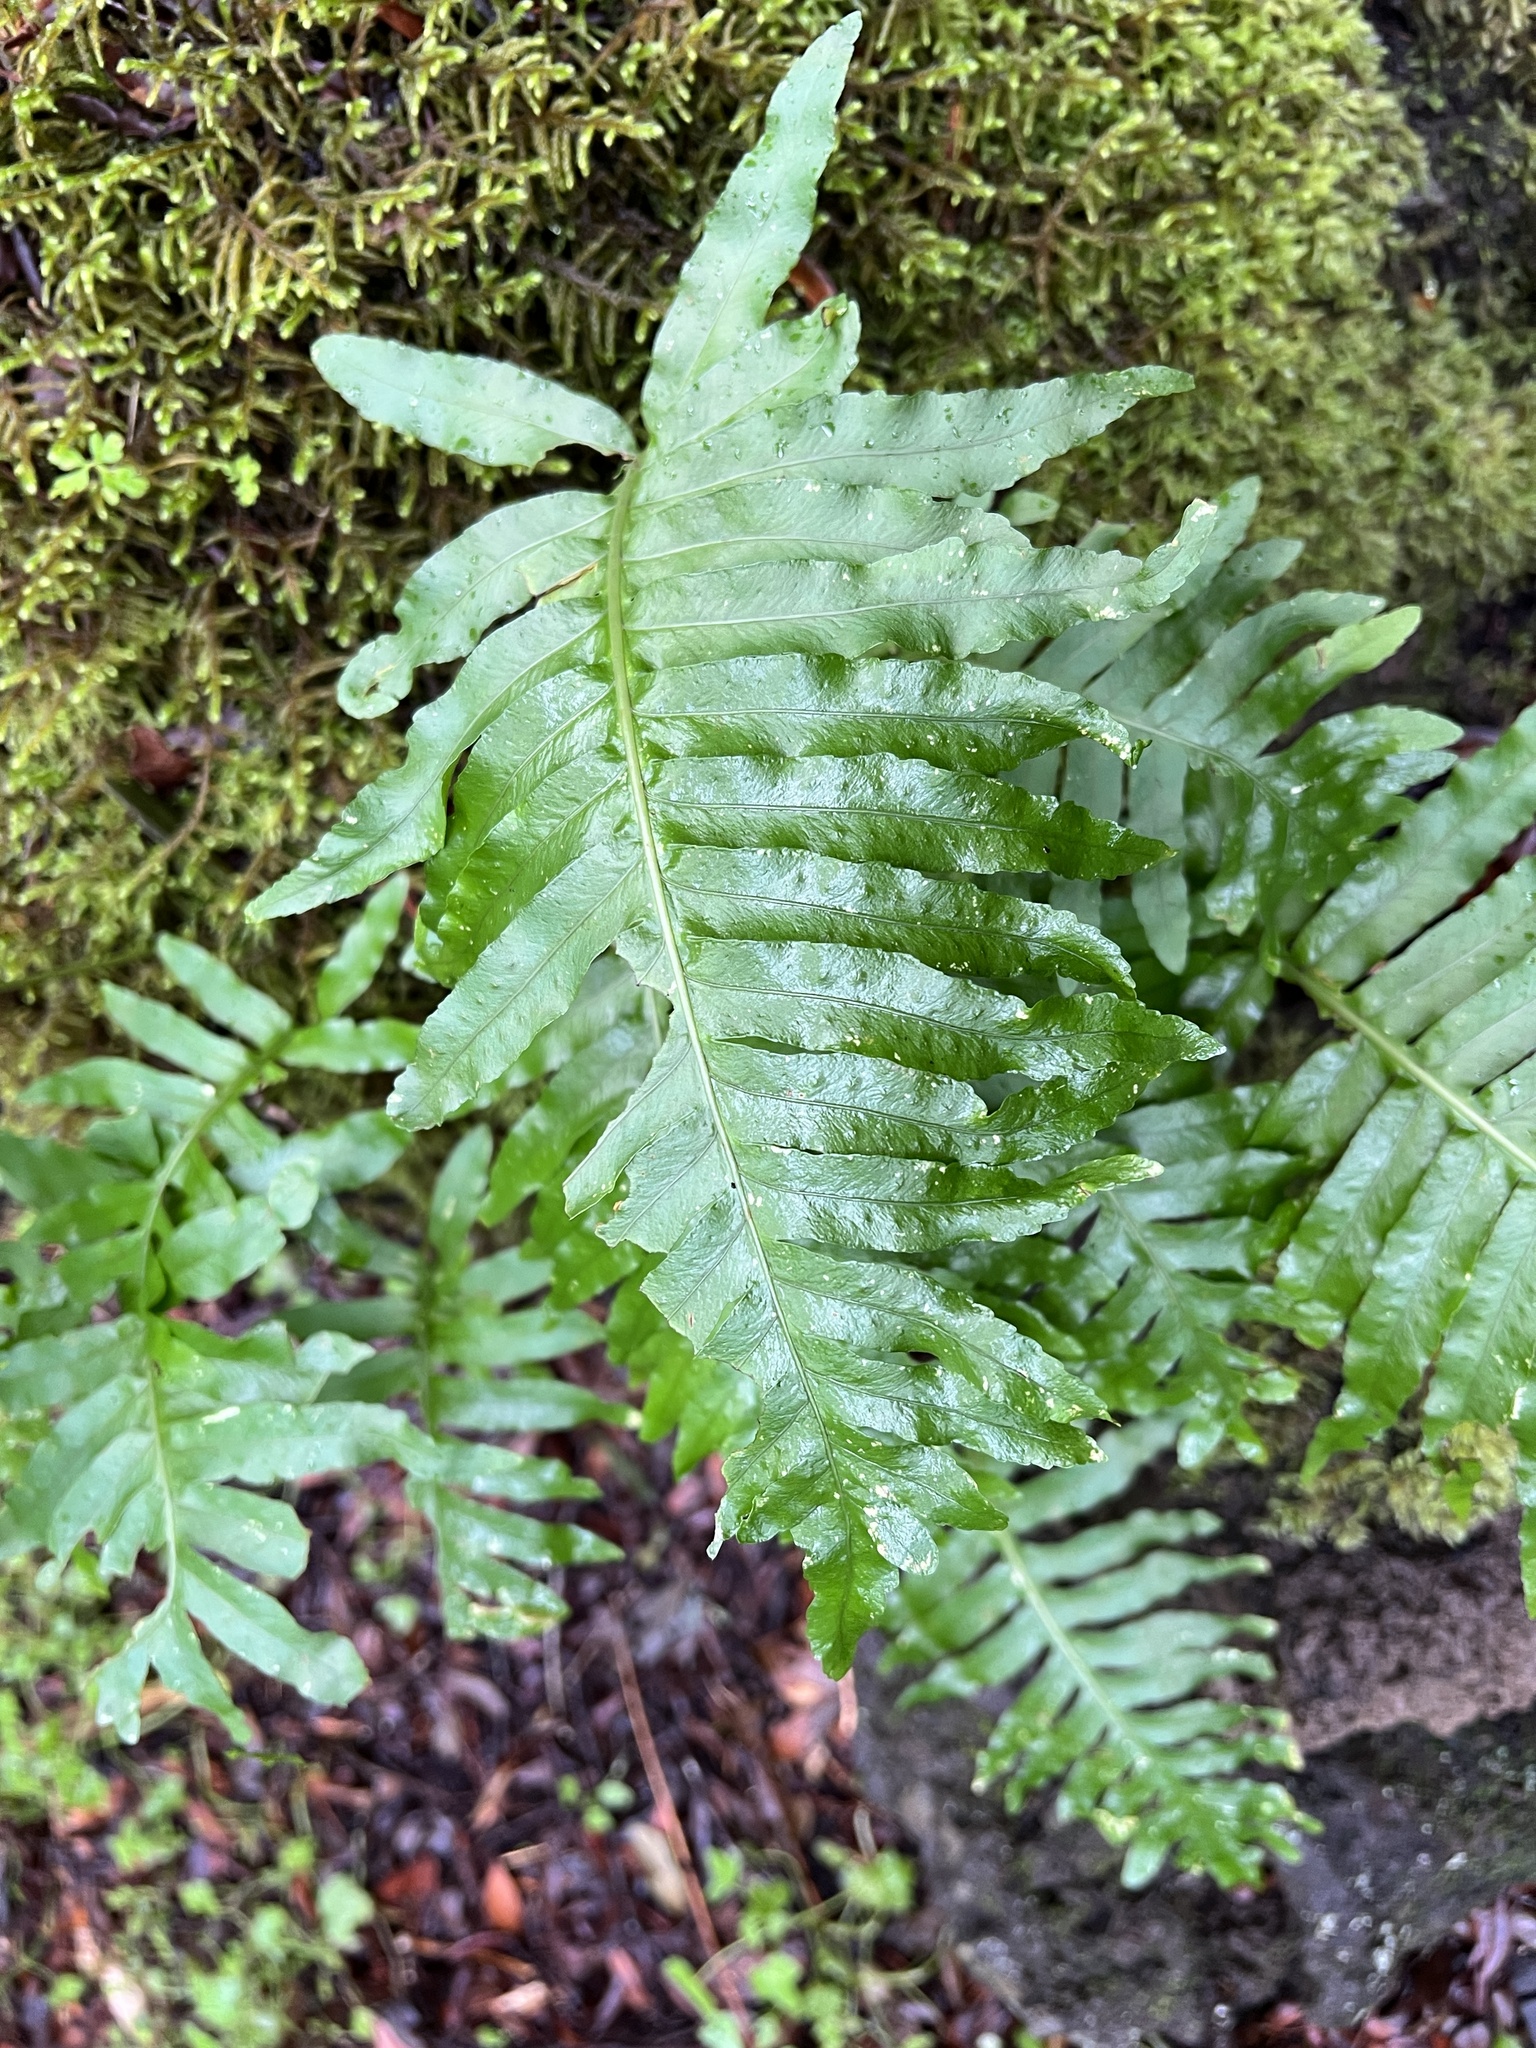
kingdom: Plantae
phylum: Tracheophyta
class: Polypodiopsida
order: Polypodiales
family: Polypodiaceae
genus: Polypodium
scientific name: Polypodium macaronesicum
